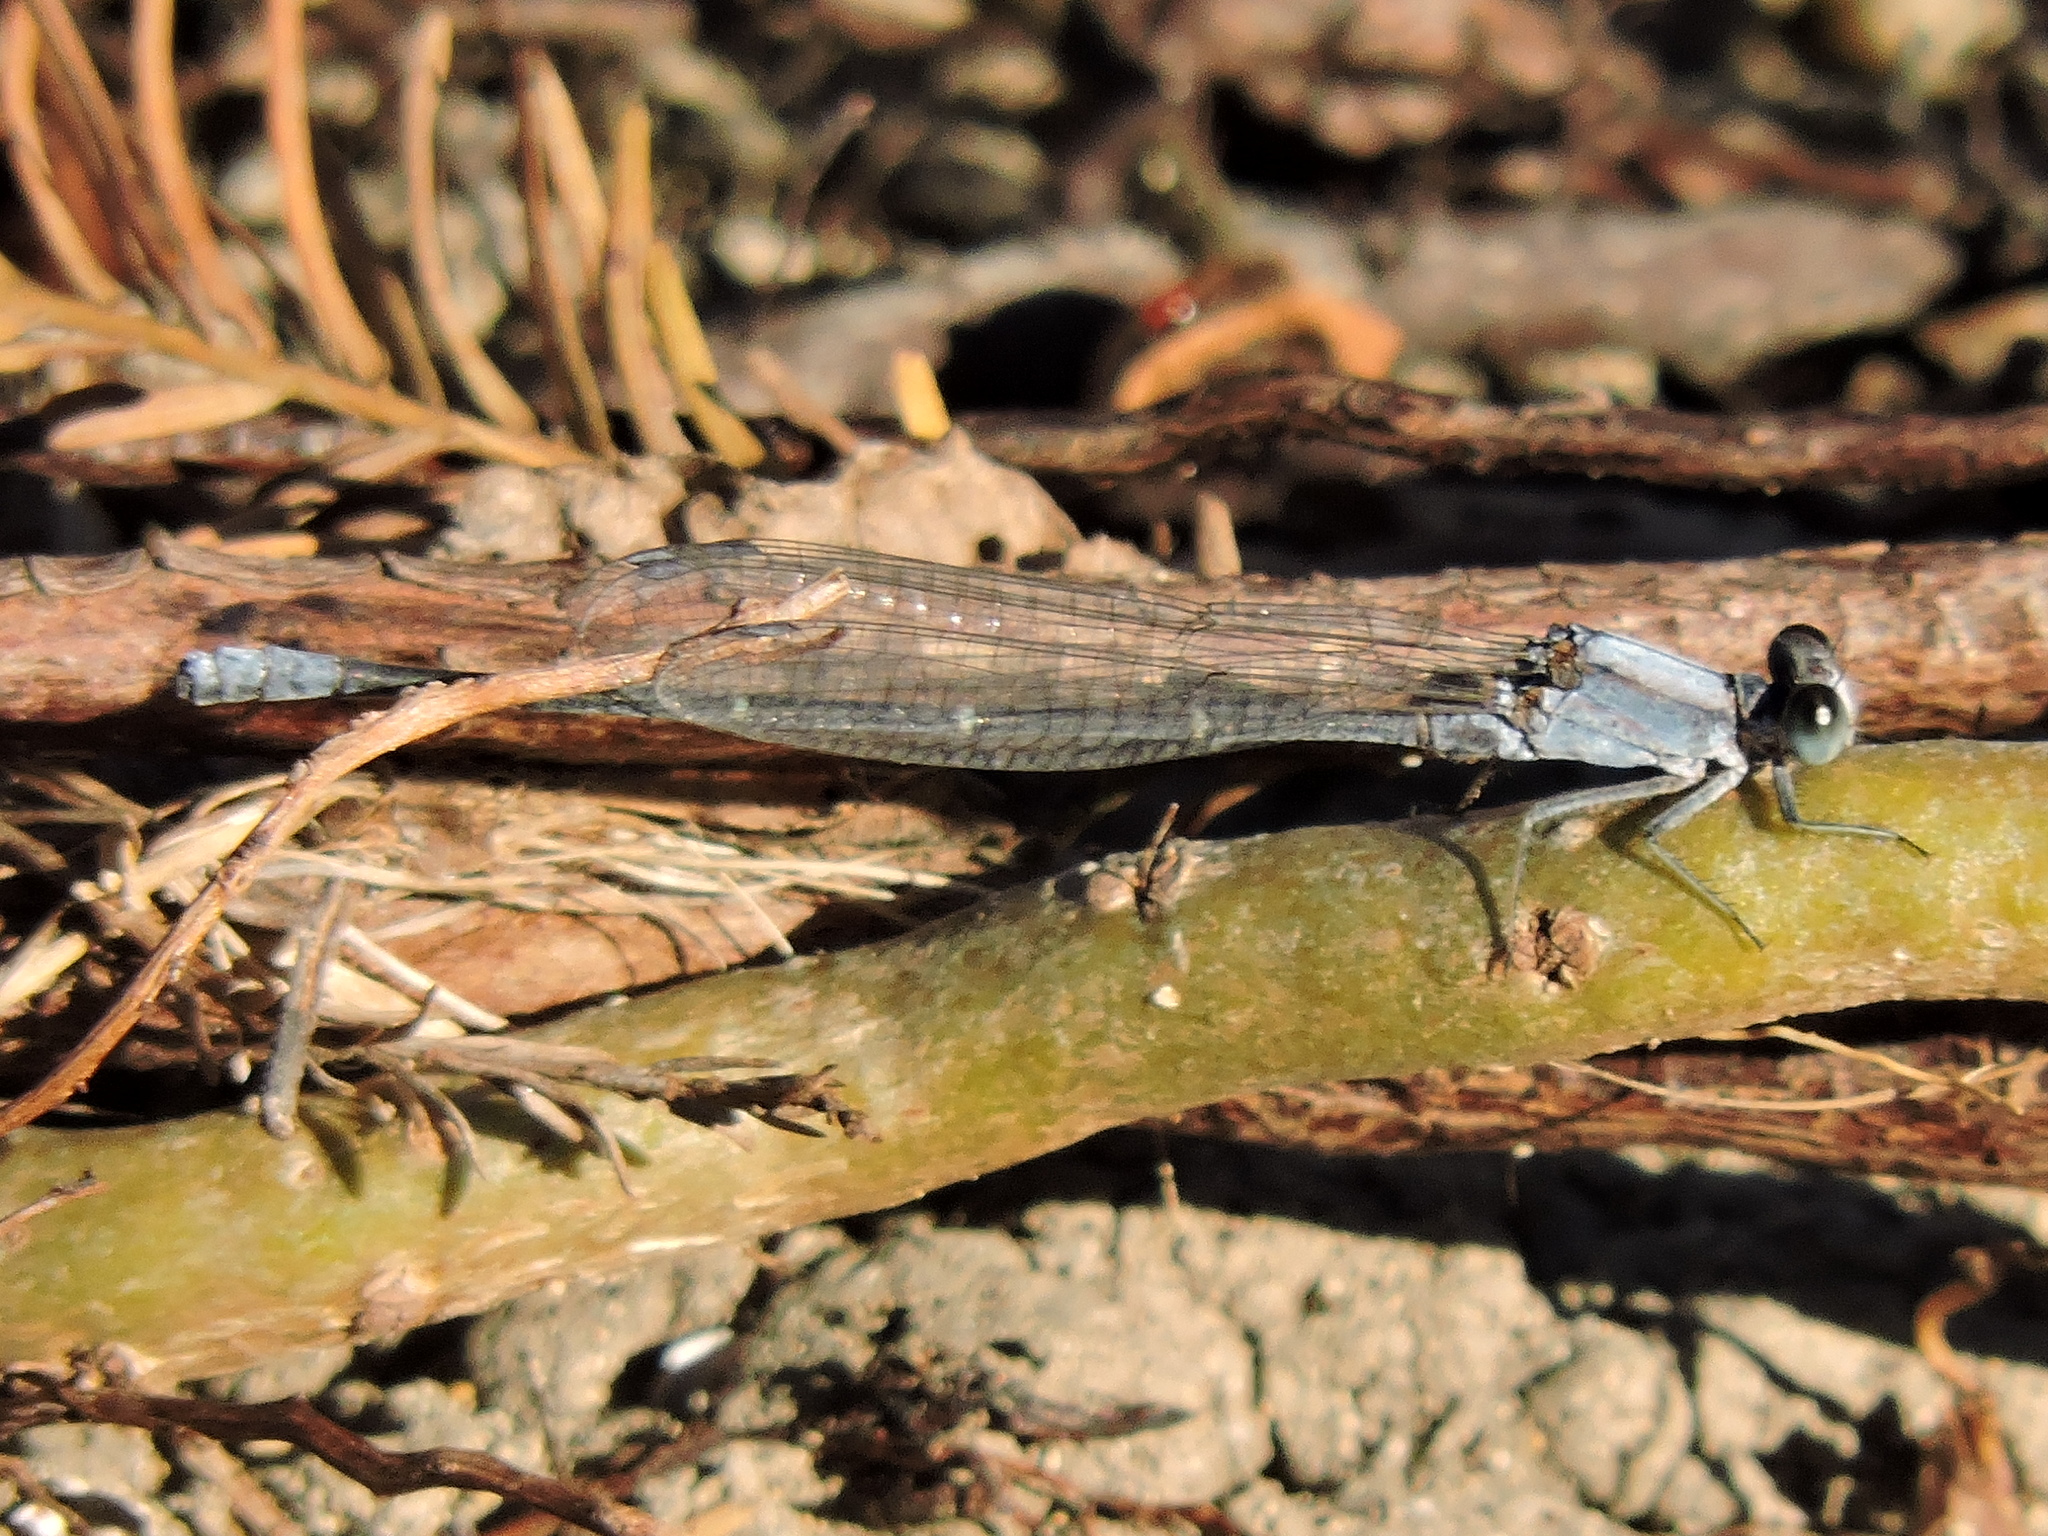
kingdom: Animalia
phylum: Arthropoda
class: Insecta
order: Odonata
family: Coenagrionidae
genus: Argia
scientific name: Argia moesta
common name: Powdered dancer
